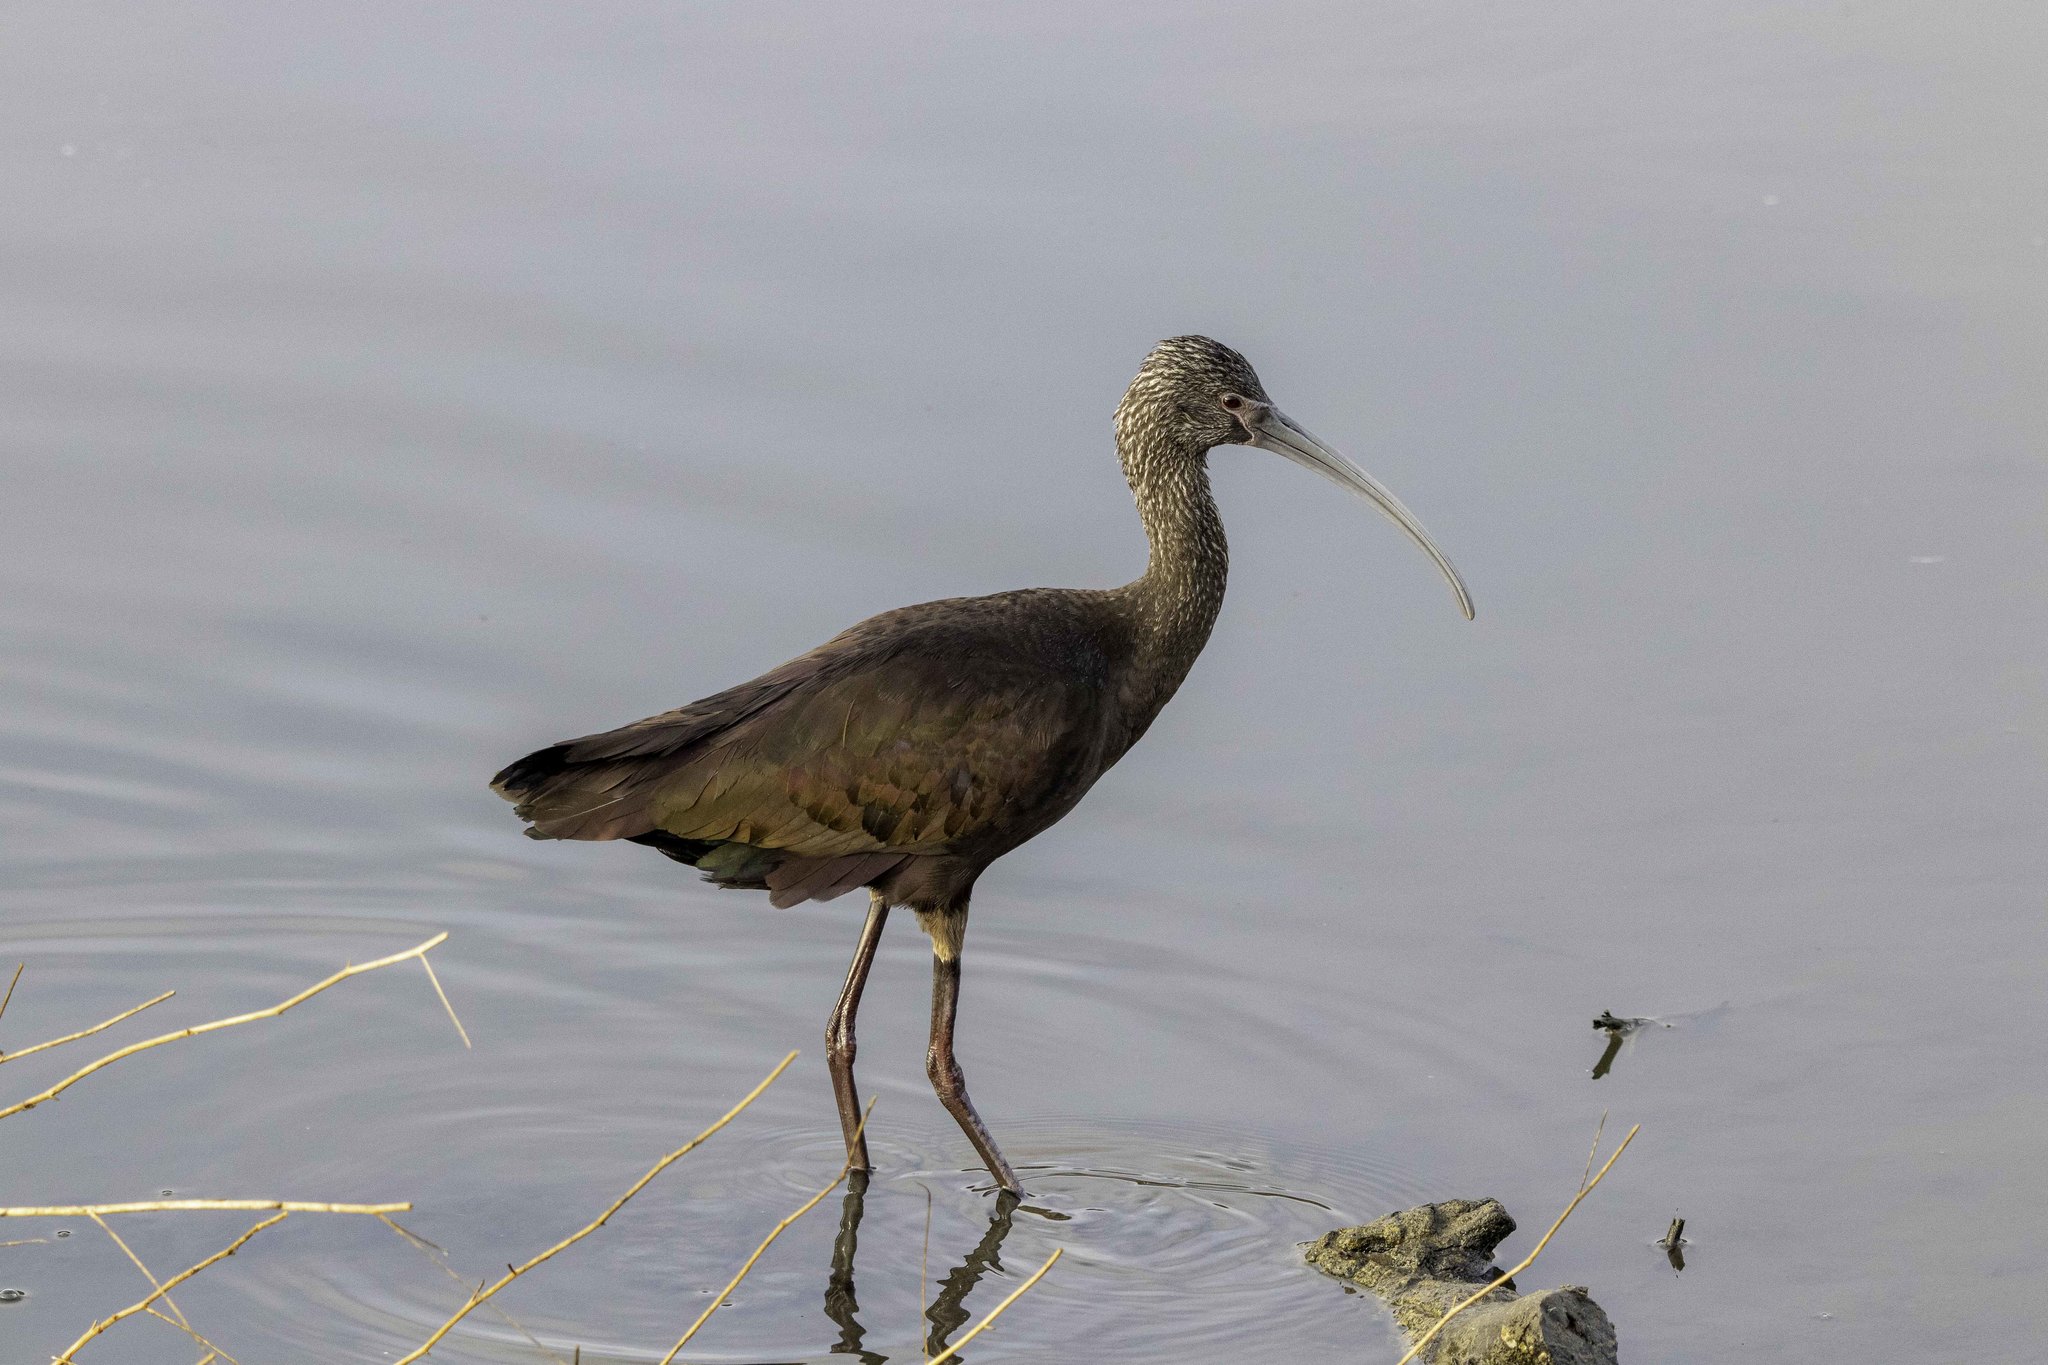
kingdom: Animalia
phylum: Chordata
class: Aves
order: Pelecaniformes
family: Threskiornithidae
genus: Plegadis
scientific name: Plegadis chihi
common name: White-faced ibis
